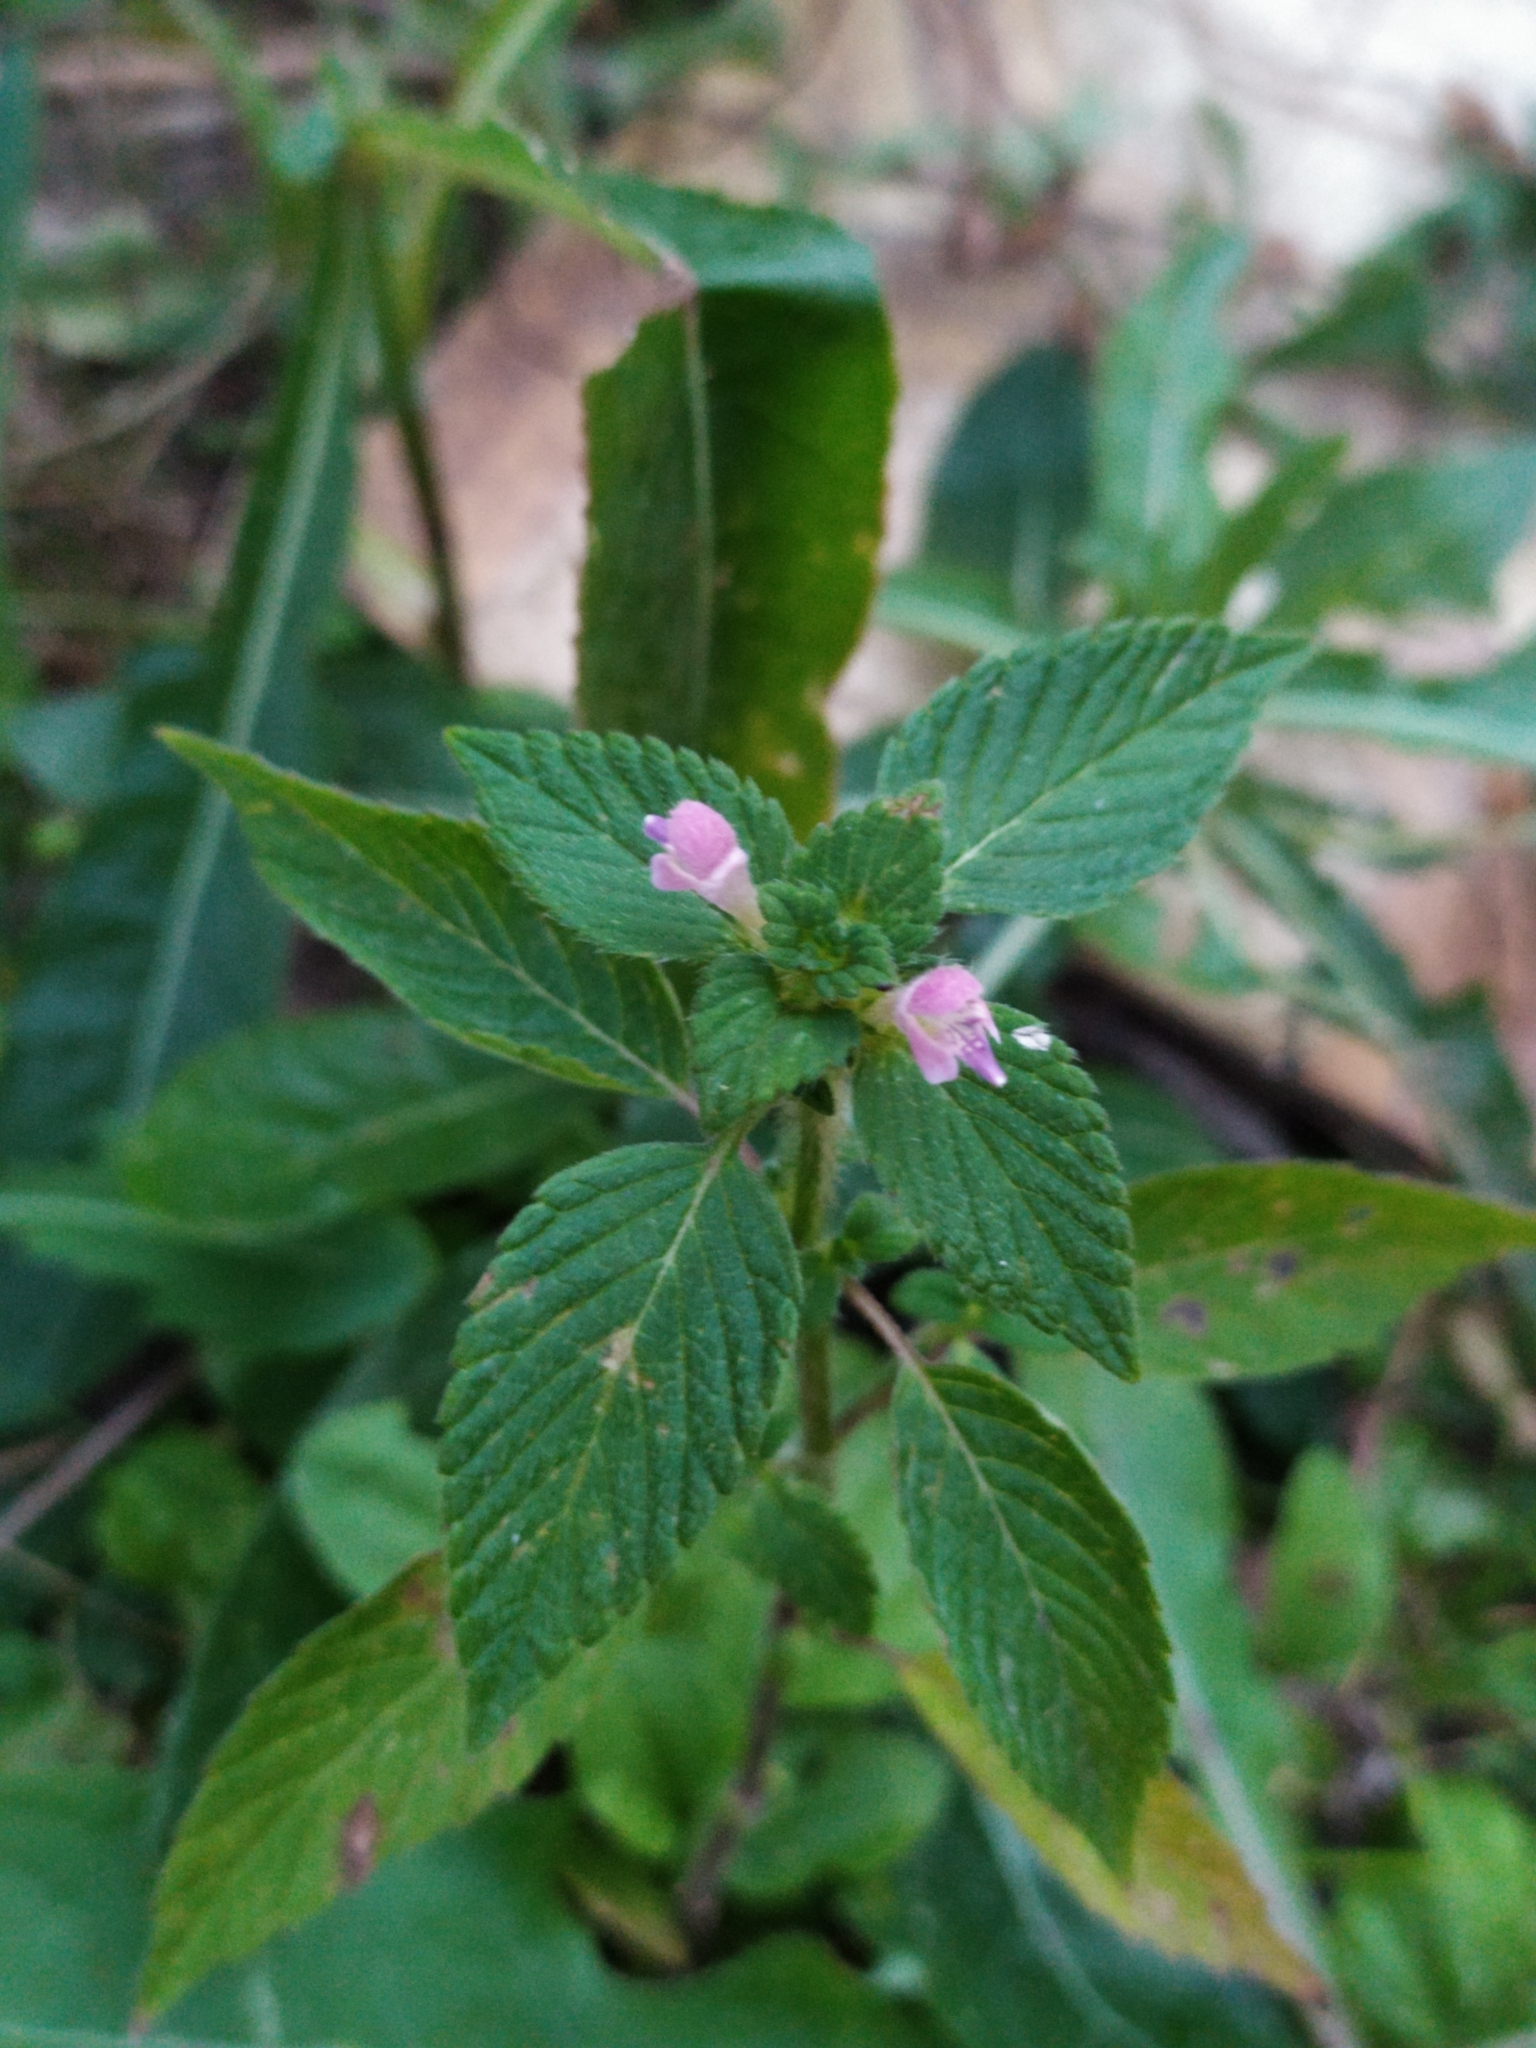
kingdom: Plantae
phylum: Tracheophyta
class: Magnoliopsida
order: Lamiales
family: Lamiaceae
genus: Galeopsis
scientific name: Galeopsis bifida
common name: Bifid hemp-nettle
